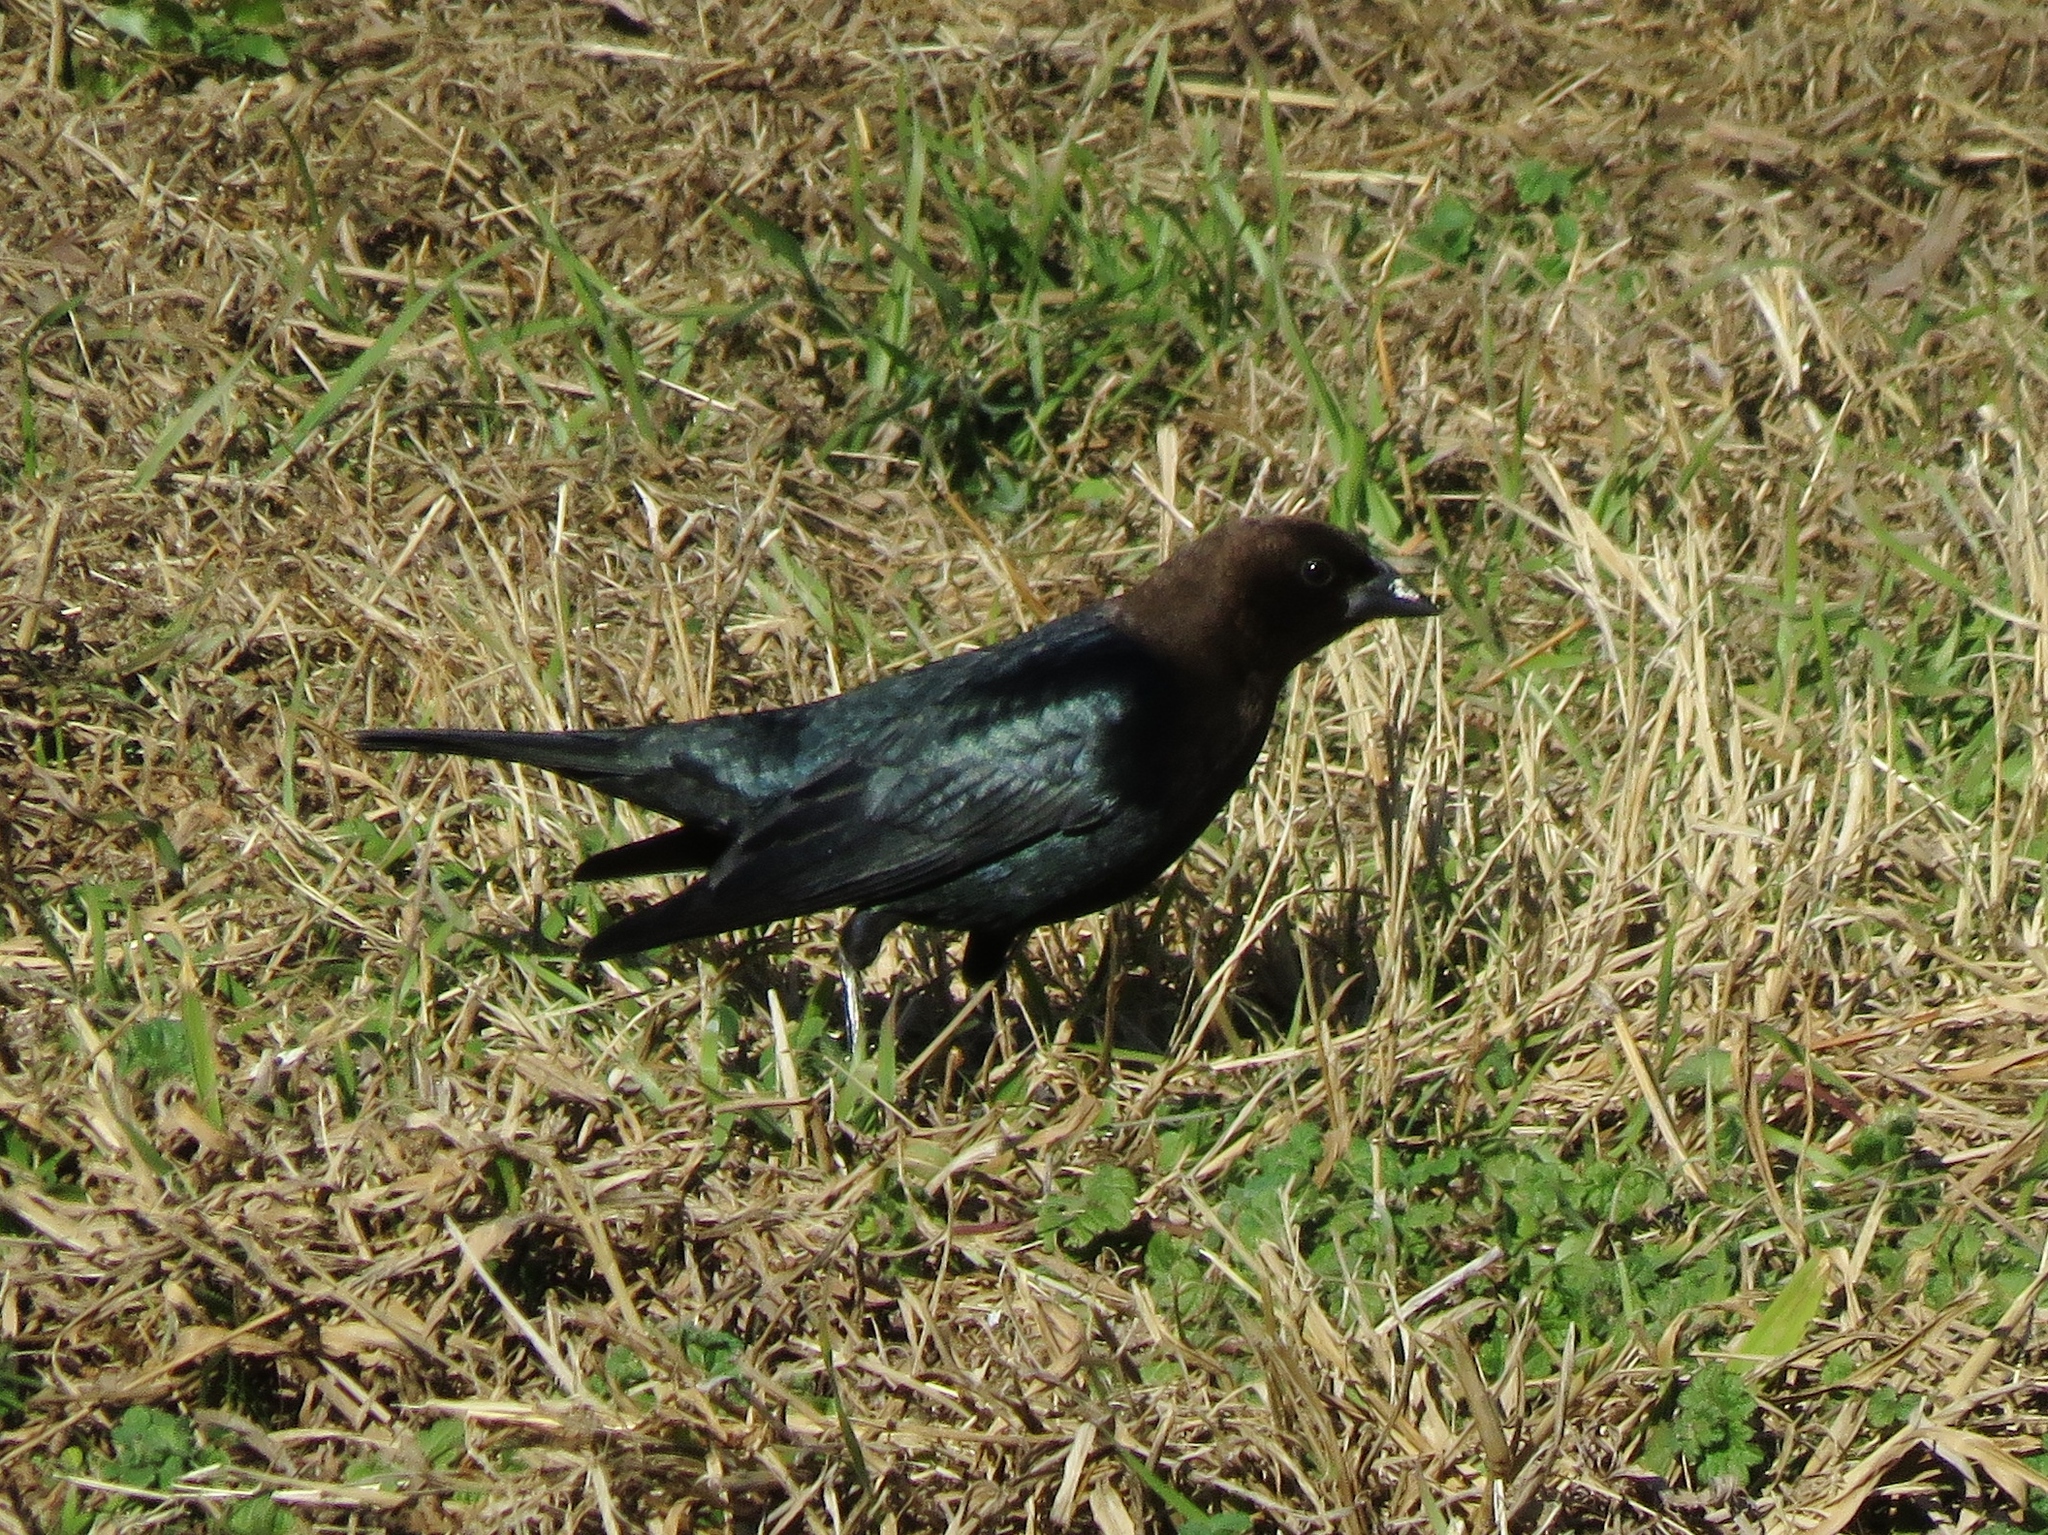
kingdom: Animalia
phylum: Chordata
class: Aves
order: Passeriformes
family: Icteridae
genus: Molothrus
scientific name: Molothrus ater
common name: Brown-headed cowbird
